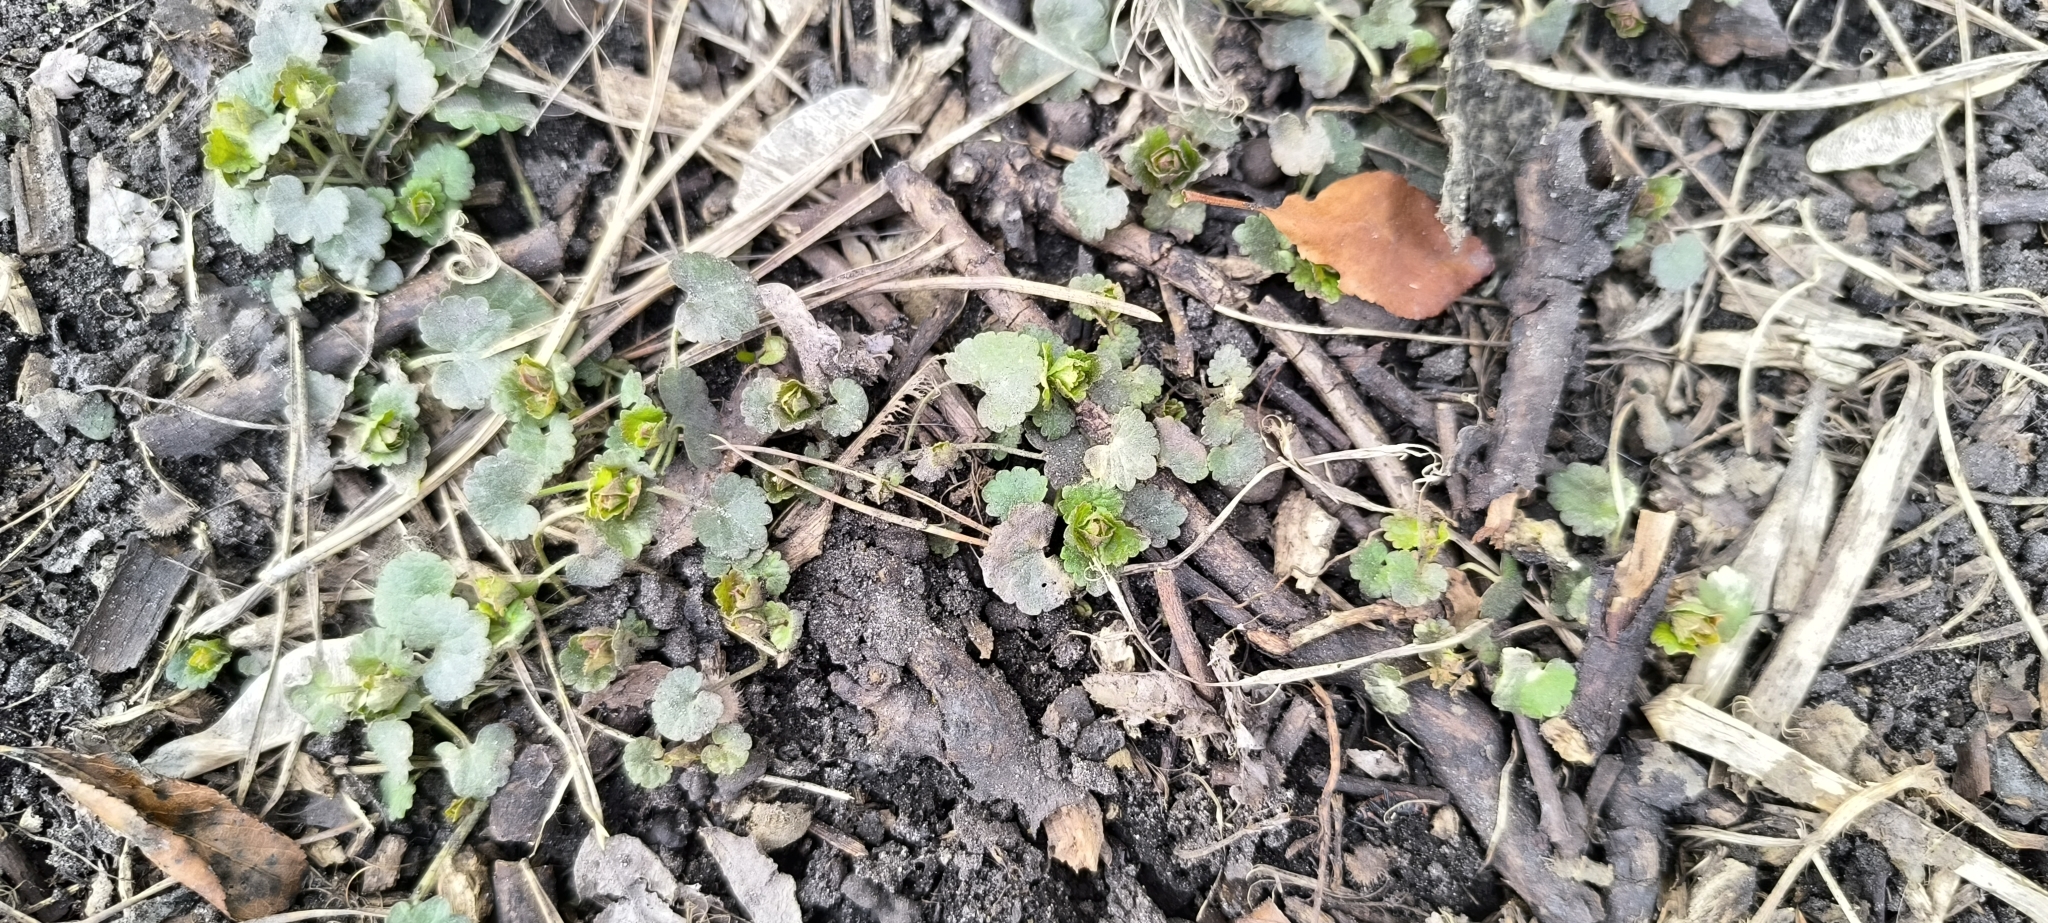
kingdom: Plantae
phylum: Tracheophyta
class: Magnoliopsida
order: Lamiales
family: Lamiaceae
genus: Glechoma
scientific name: Glechoma hederacea
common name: Ground ivy
